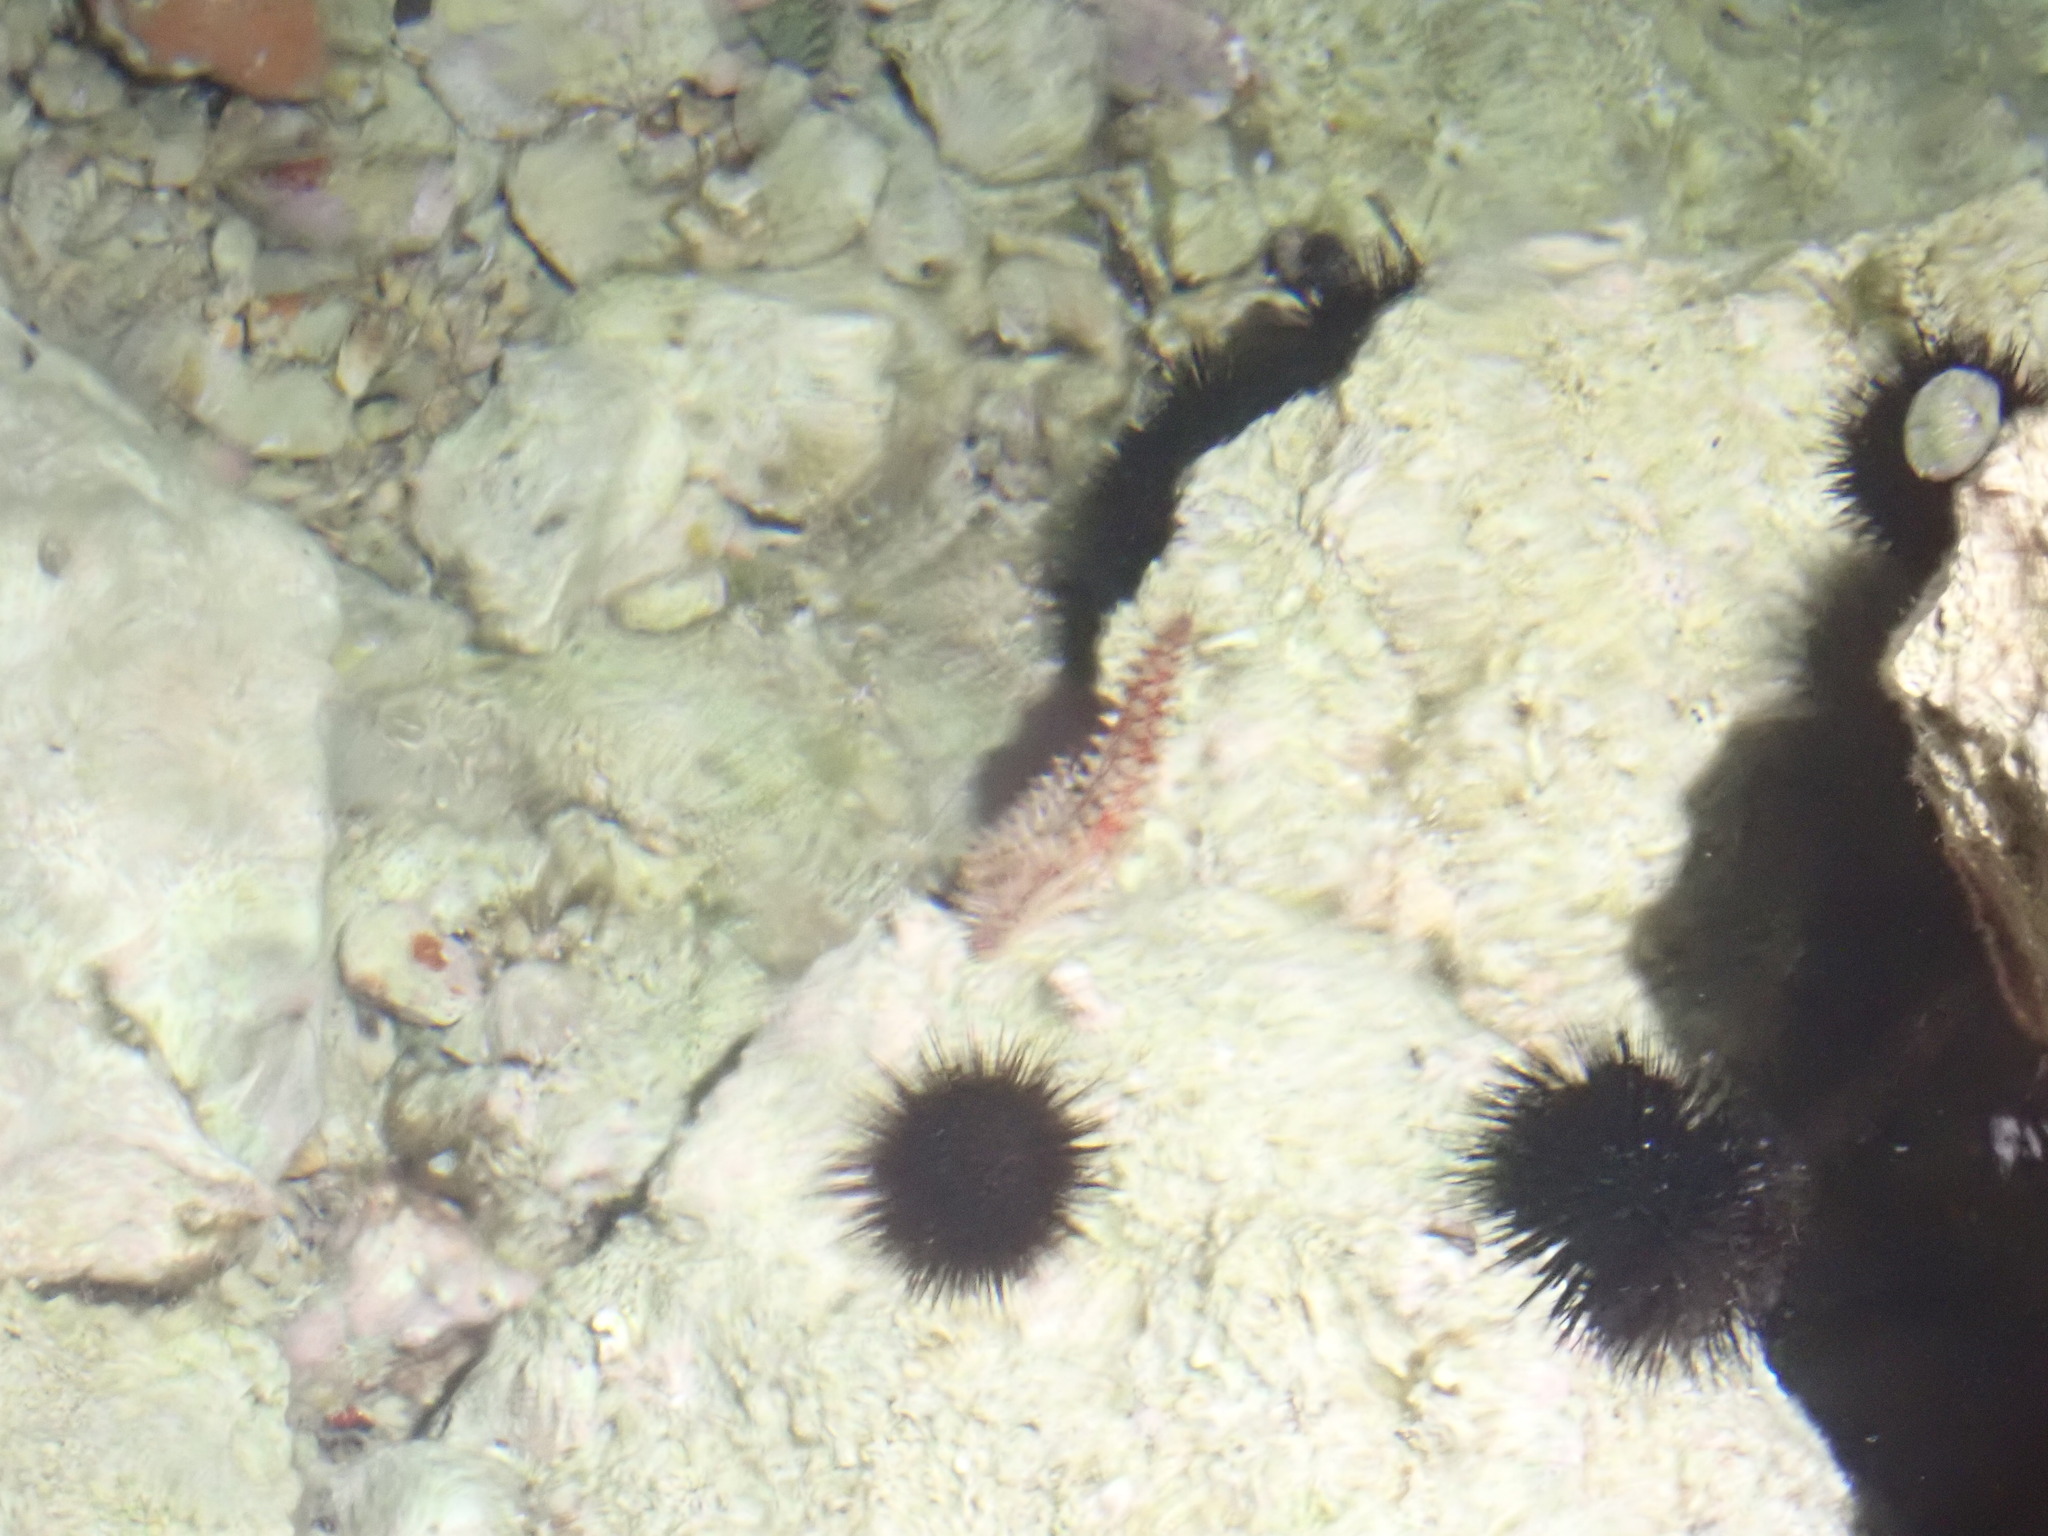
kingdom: Animalia
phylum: Echinodermata
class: Asteroidea
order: Forcipulatida
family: Asteriidae
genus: Marthasterias
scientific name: Marthasterias glacialis
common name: Spiny starfish
